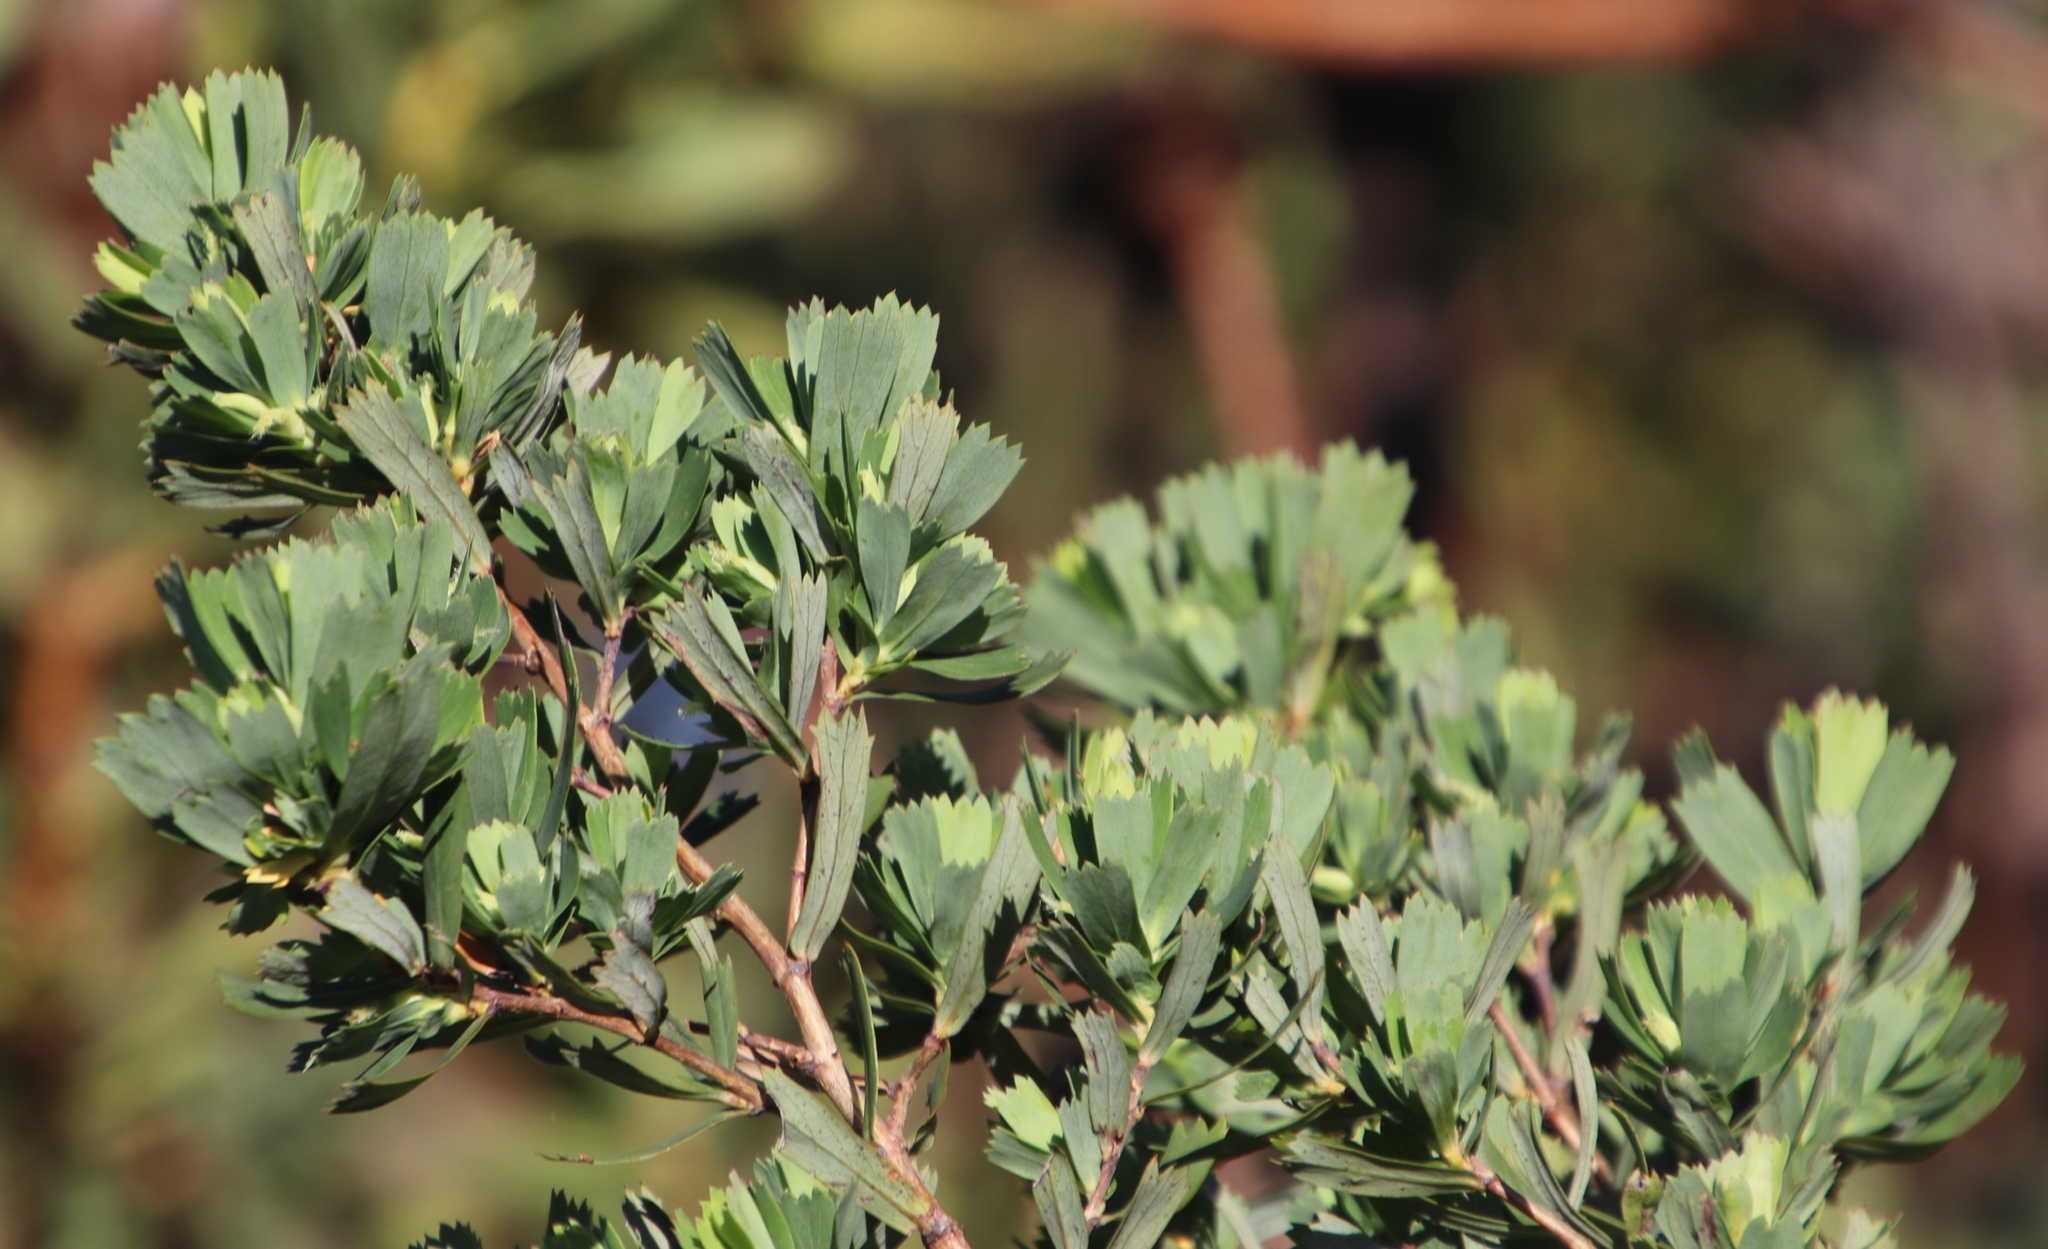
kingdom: Plantae
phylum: Tracheophyta
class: Magnoliopsida
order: Rosales
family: Rosaceae
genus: Cliffortia
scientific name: Cliffortia cuneata
